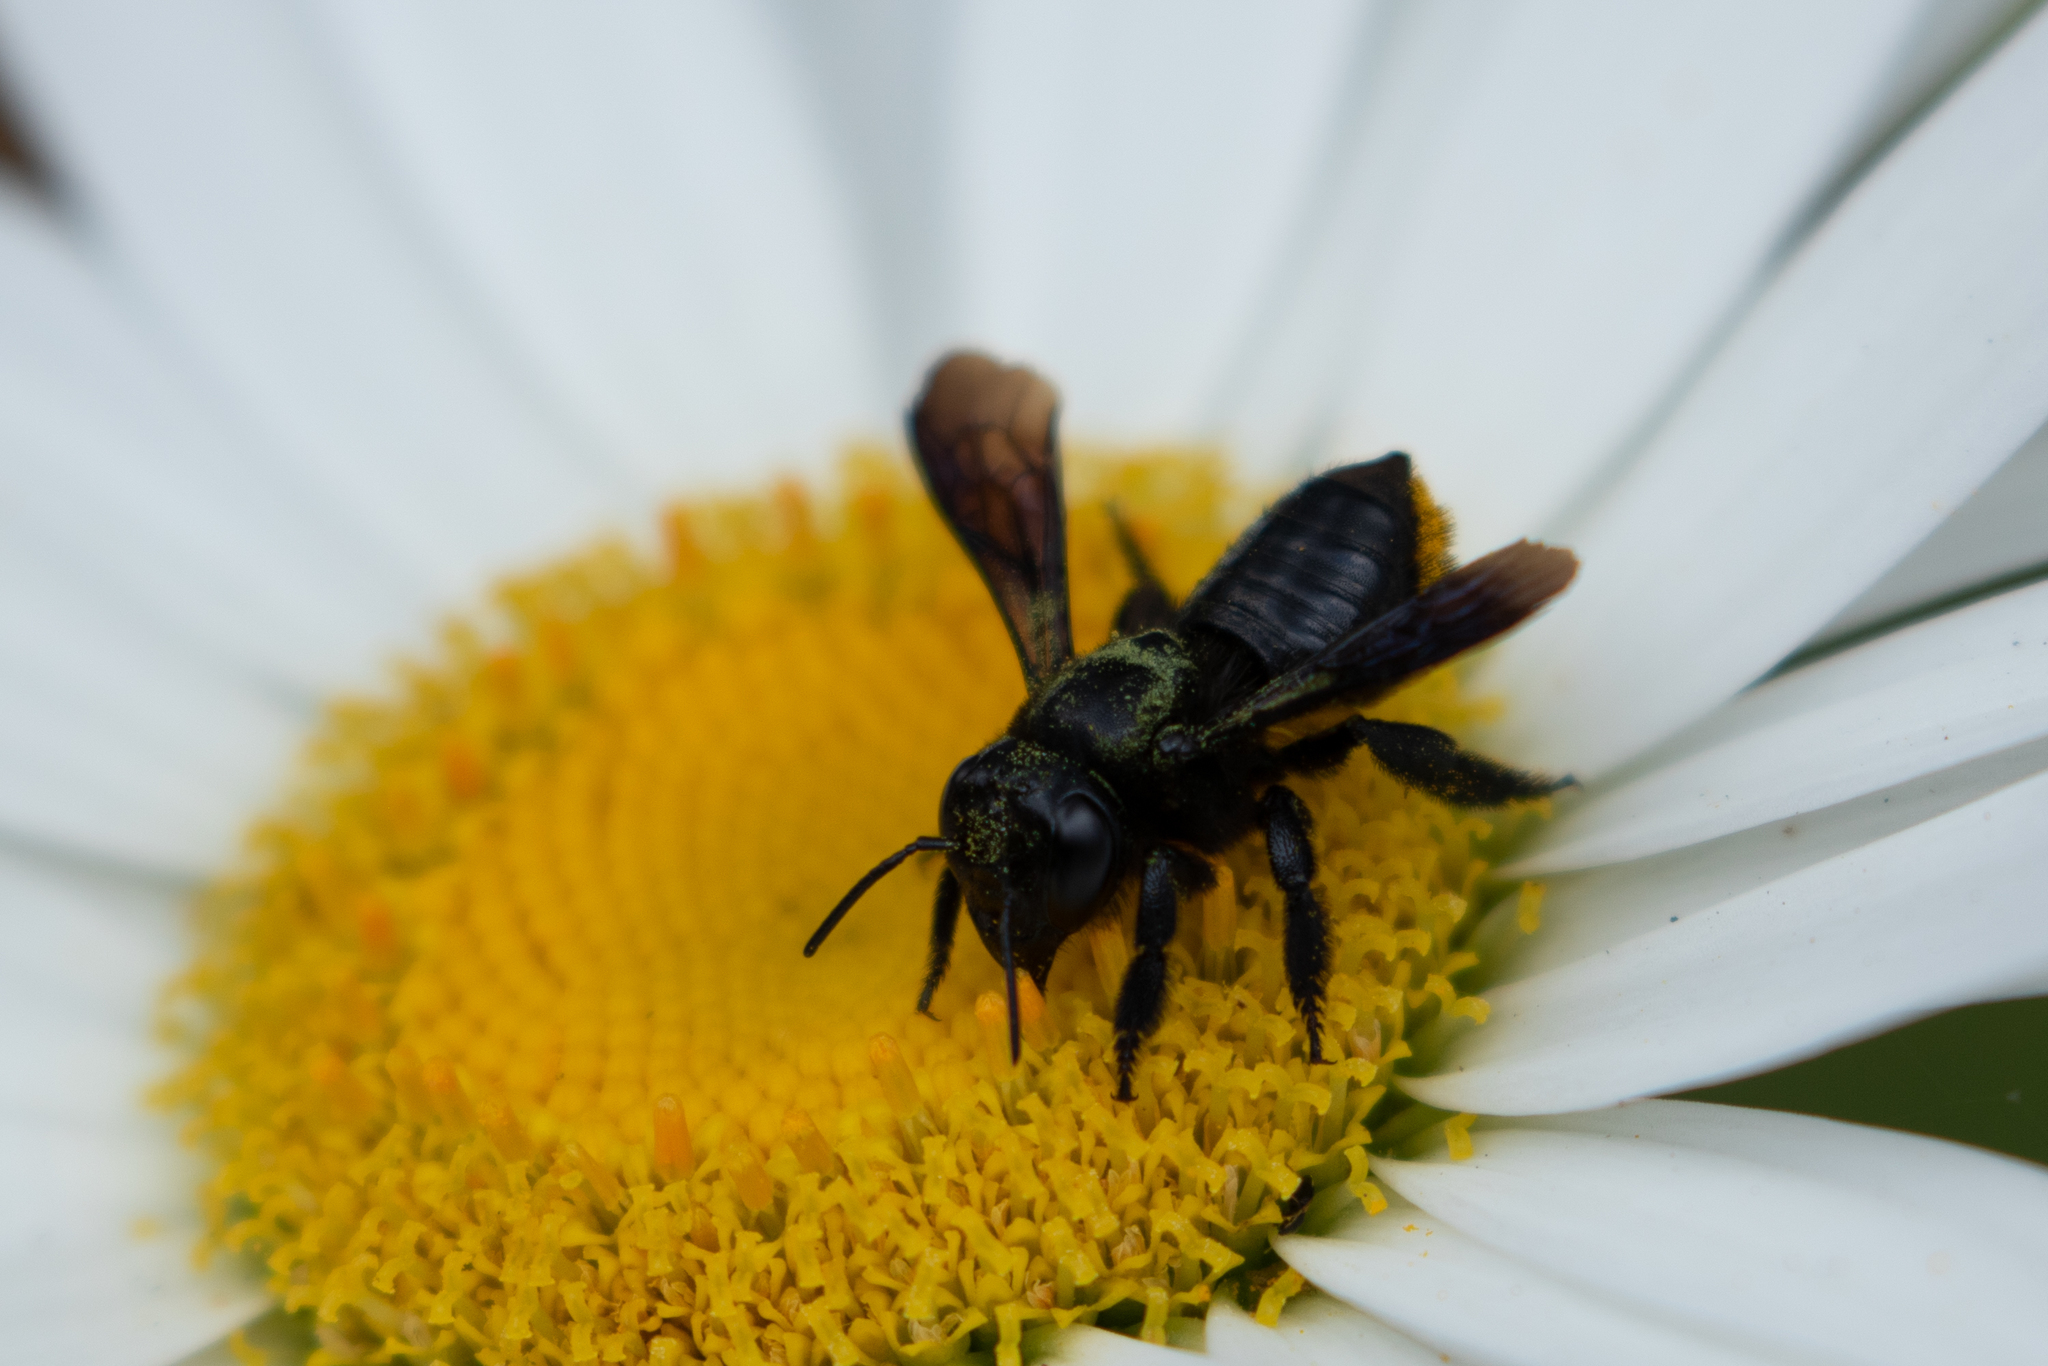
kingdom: Animalia
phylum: Arthropoda
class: Insecta
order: Hymenoptera
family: Megachilidae
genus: Megachile
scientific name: Megachile xylocopoides
